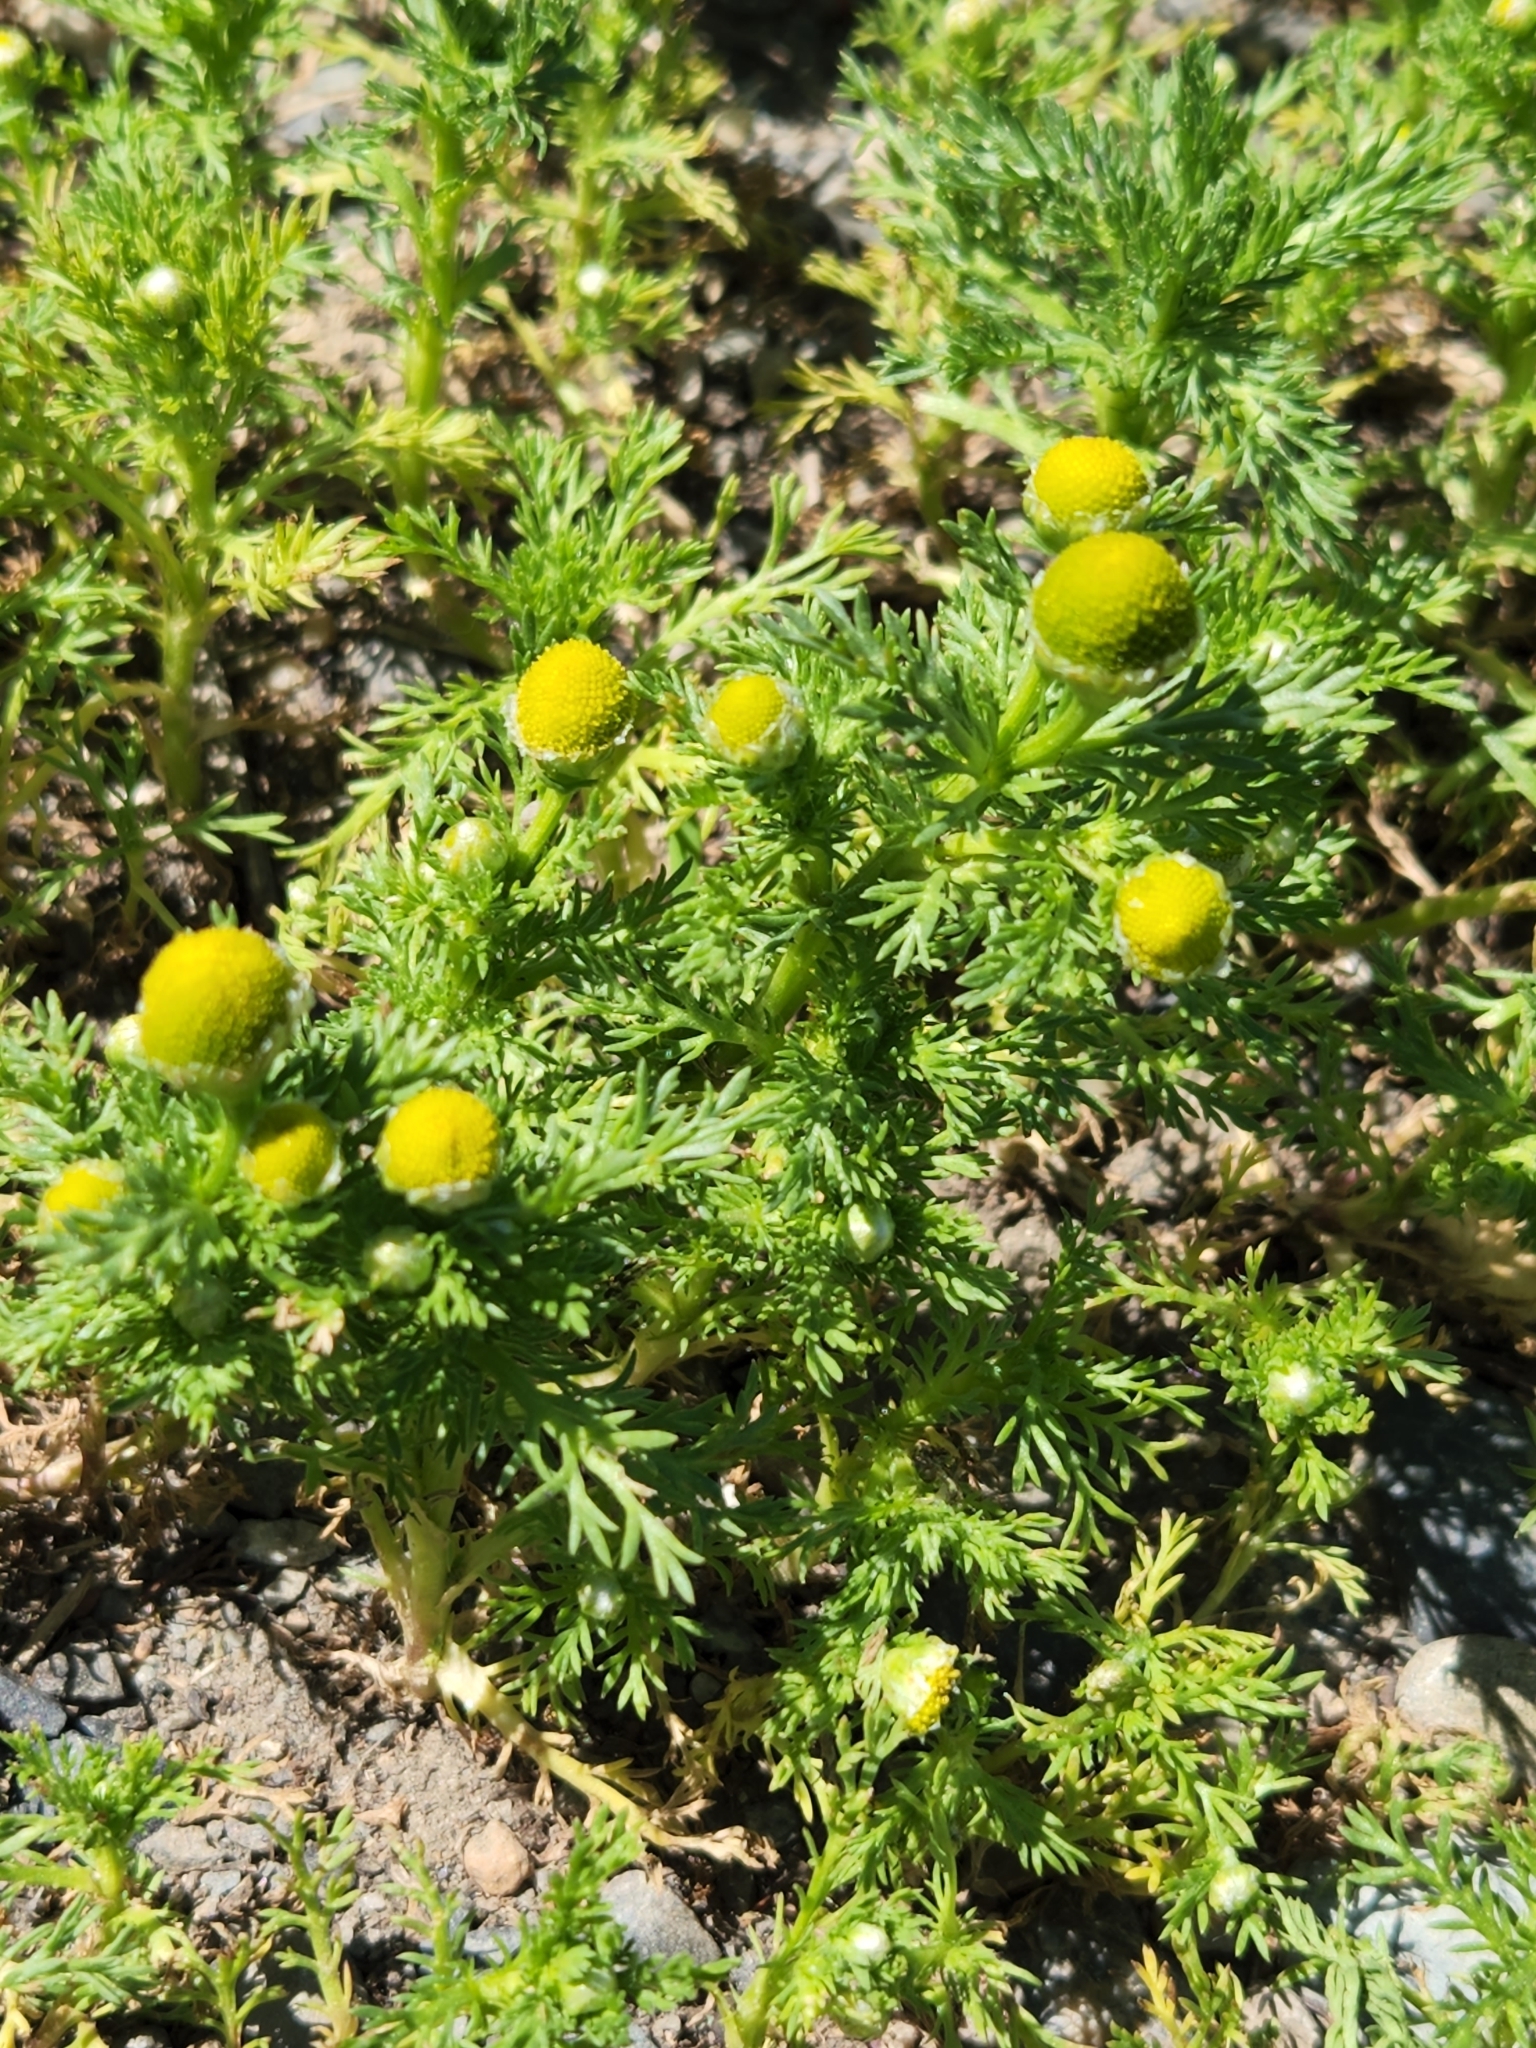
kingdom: Plantae
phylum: Tracheophyta
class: Magnoliopsida
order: Asterales
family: Asteraceae
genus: Matricaria
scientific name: Matricaria discoidea
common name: Disc mayweed
